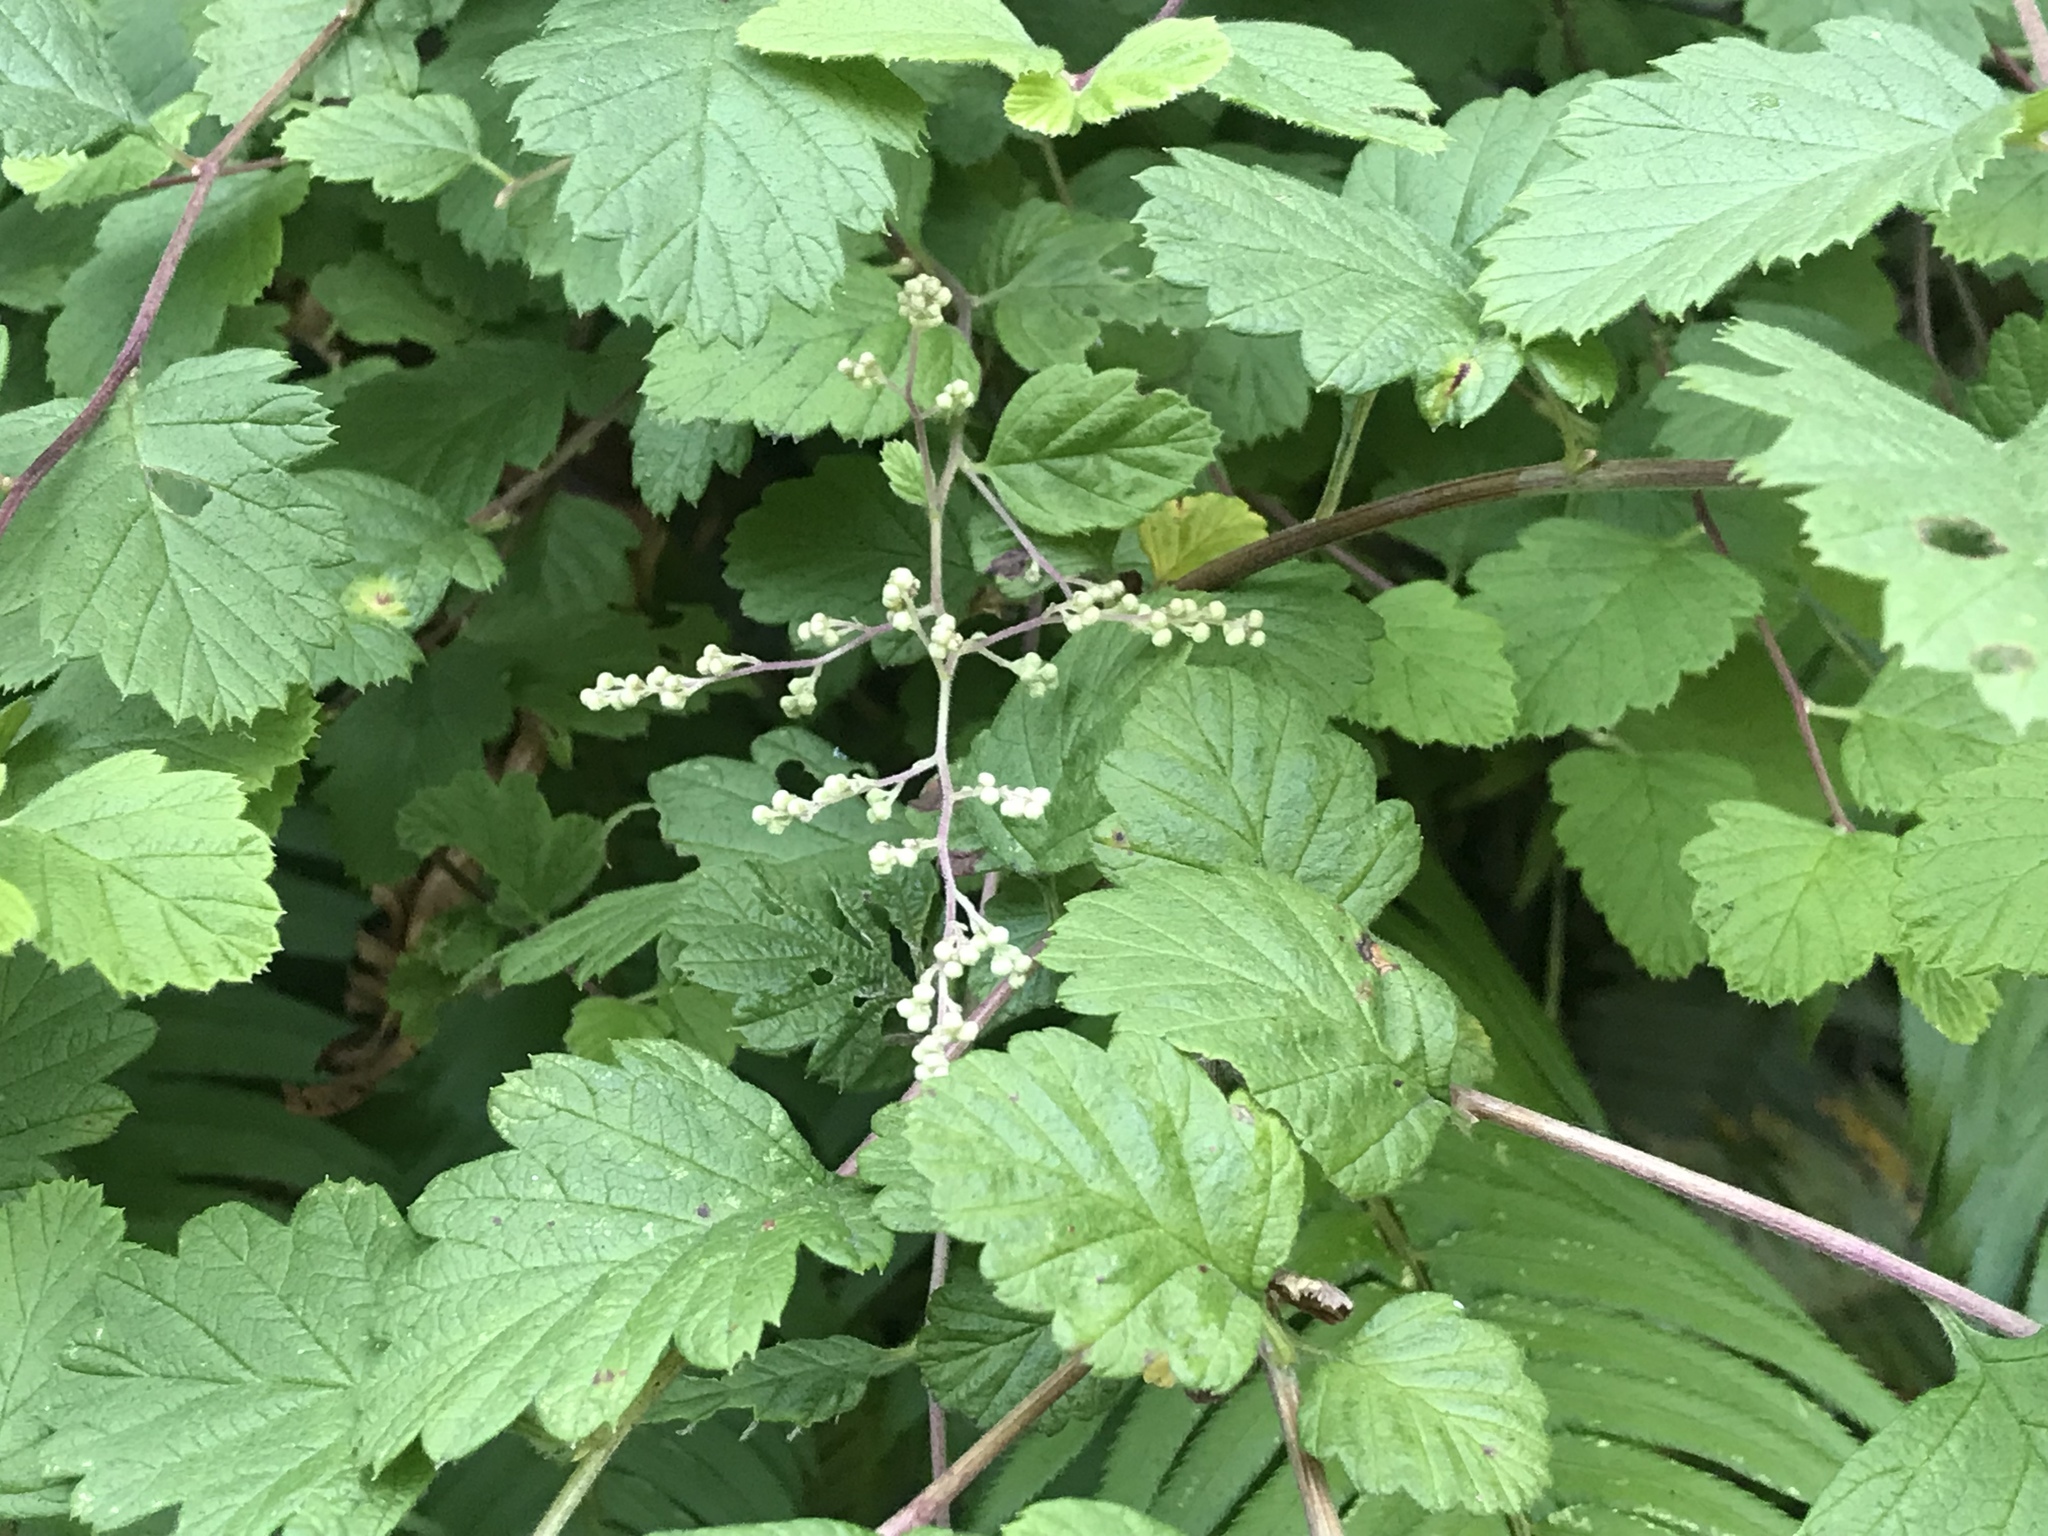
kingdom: Plantae
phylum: Tracheophyta
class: Magnoliopsida
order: Rosales
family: Rosaceae
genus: Holodiscus
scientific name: Holodiscus discolor
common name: Oceanspray
